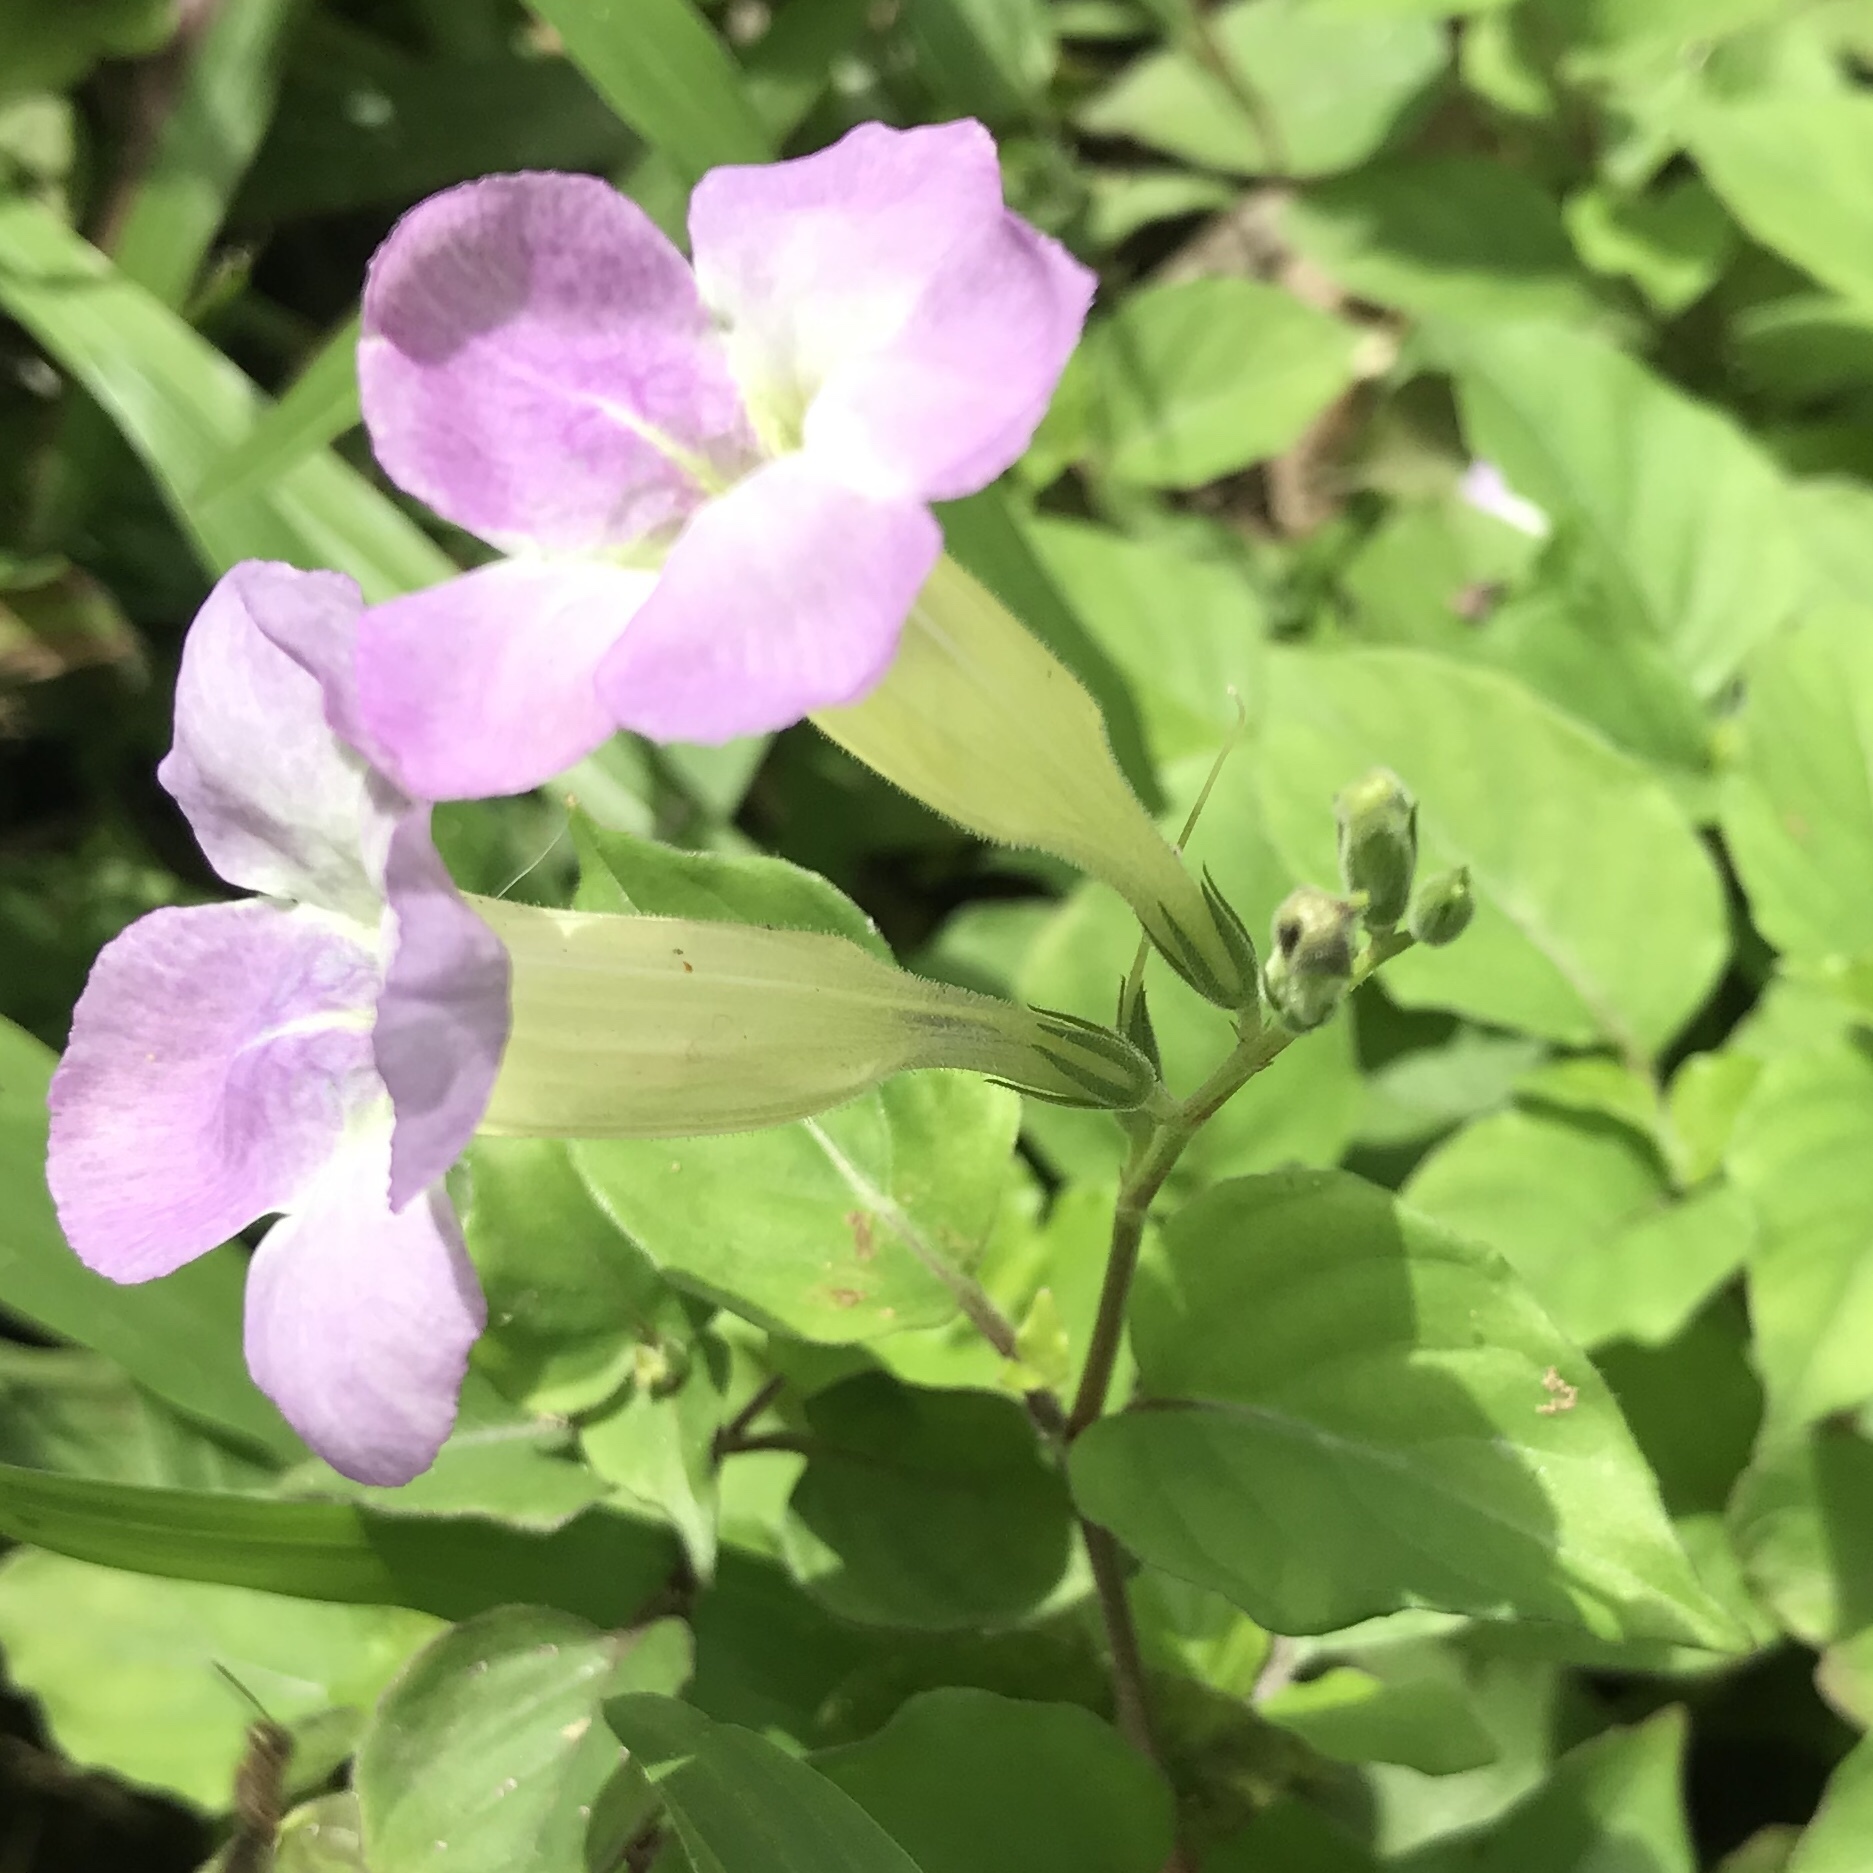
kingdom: Plantae
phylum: Tracheophyta
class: Magnoliopsida
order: Lamiales
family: Acanthaceae
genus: Asystasia
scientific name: Asystasia gangetica
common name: Chinese violet
